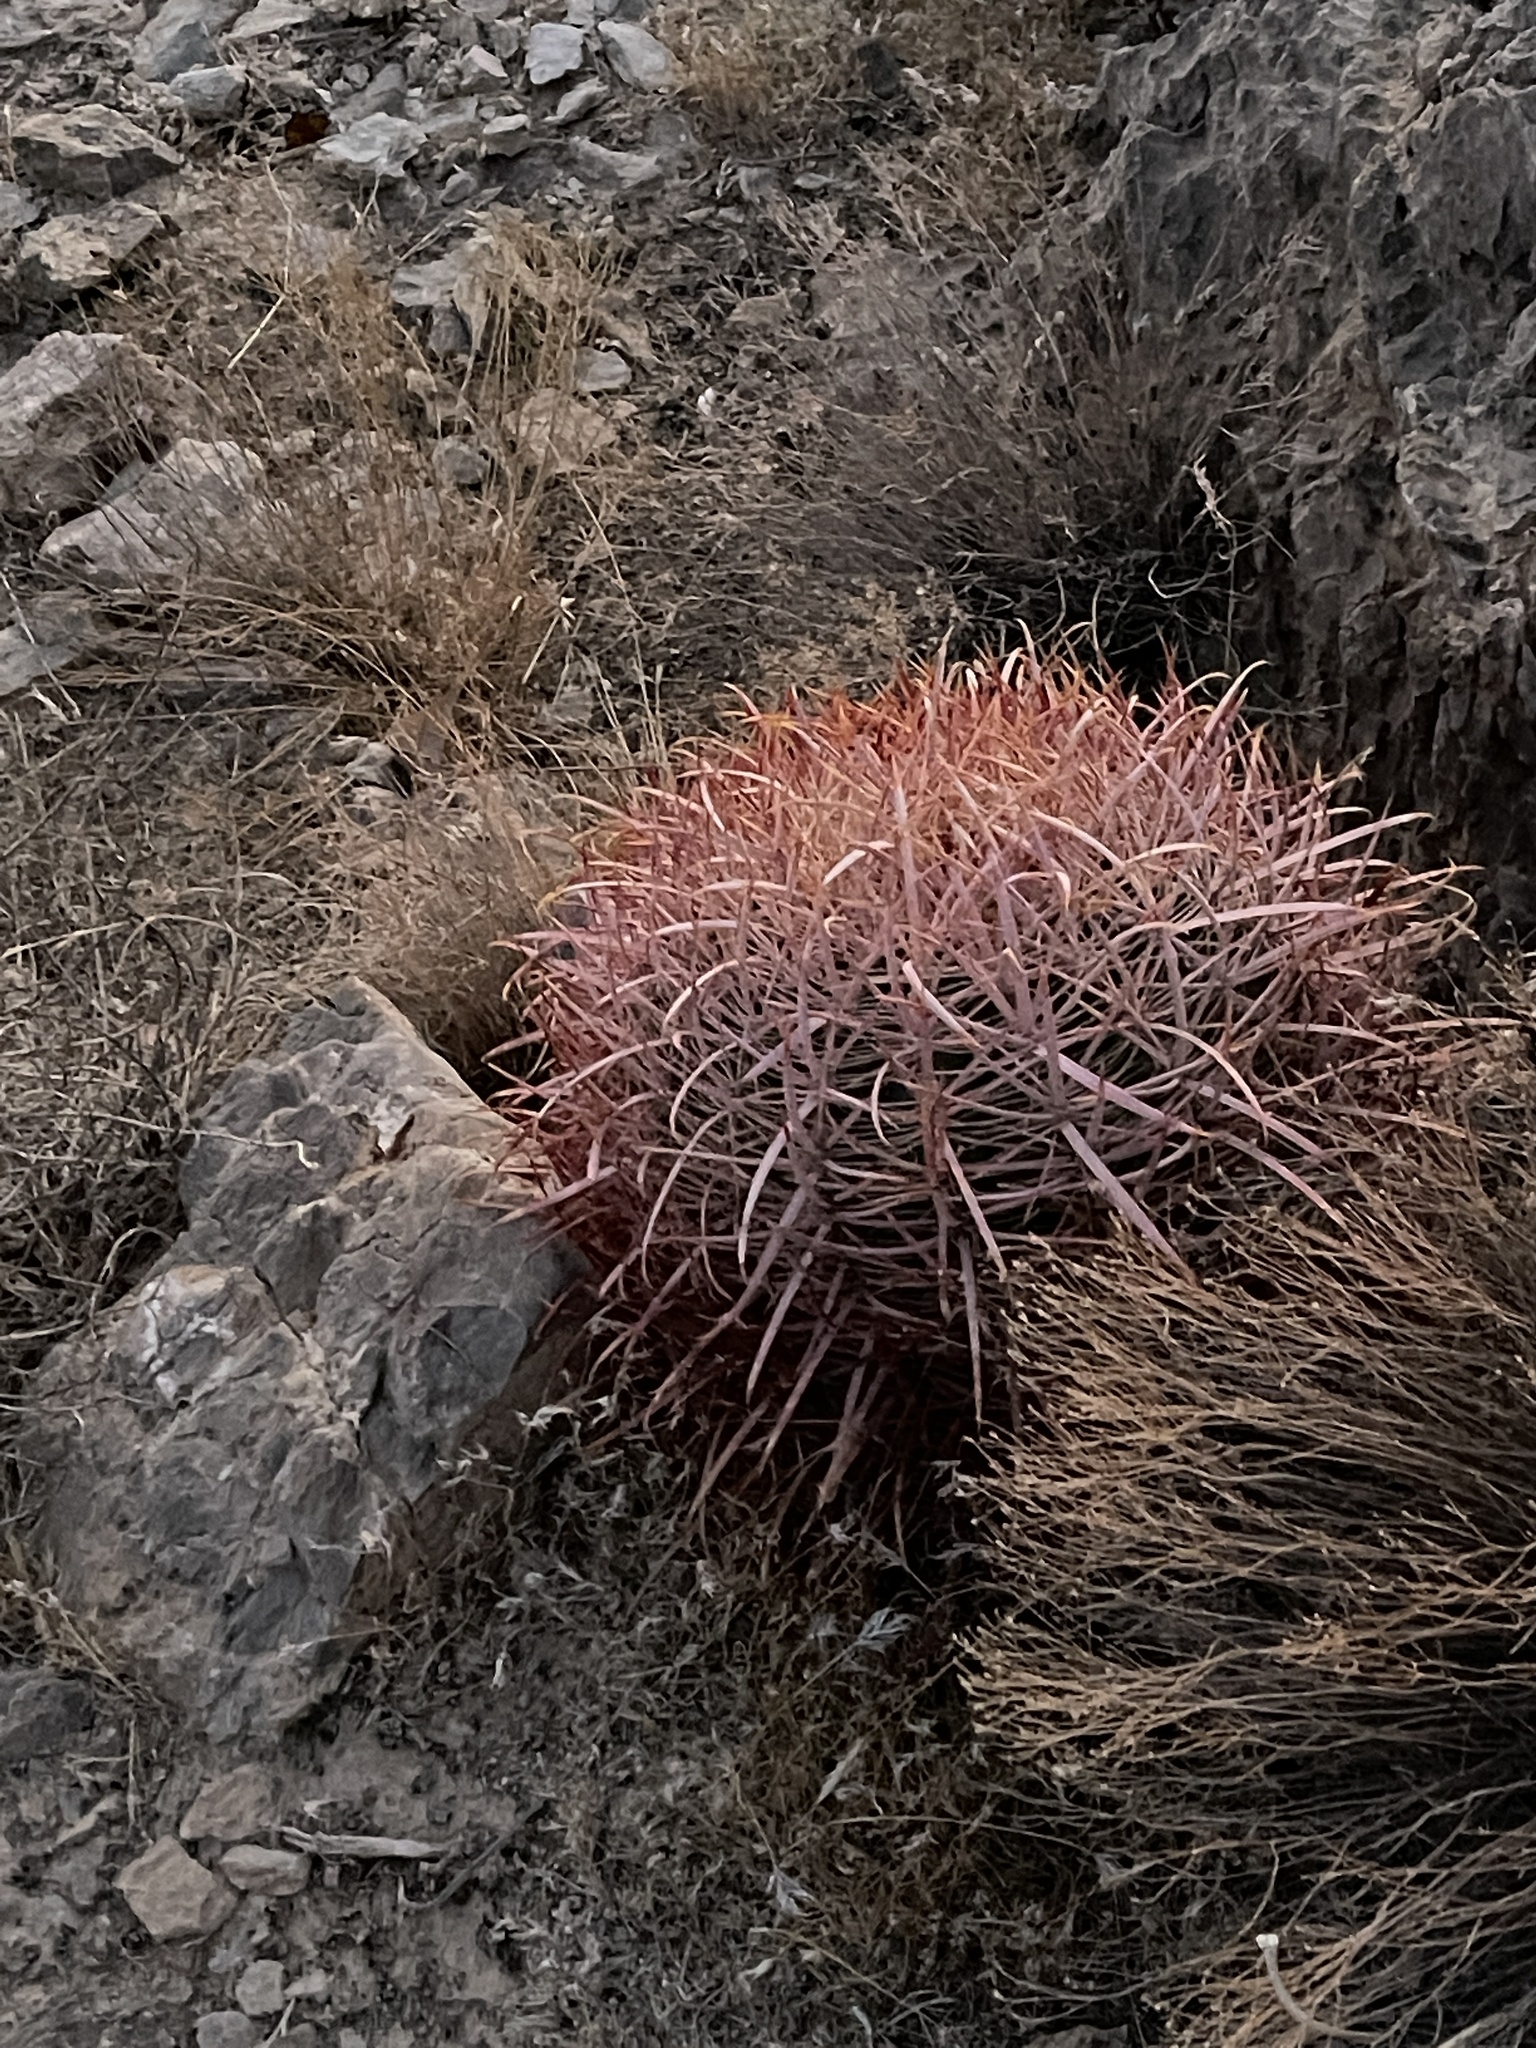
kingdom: Plantae
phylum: Tracheophyta
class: Magnoliopsida
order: Caryophyllales
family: Cactaceae
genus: Ferocactus
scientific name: Ferocactus cylindraceus
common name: California barrel cactus
